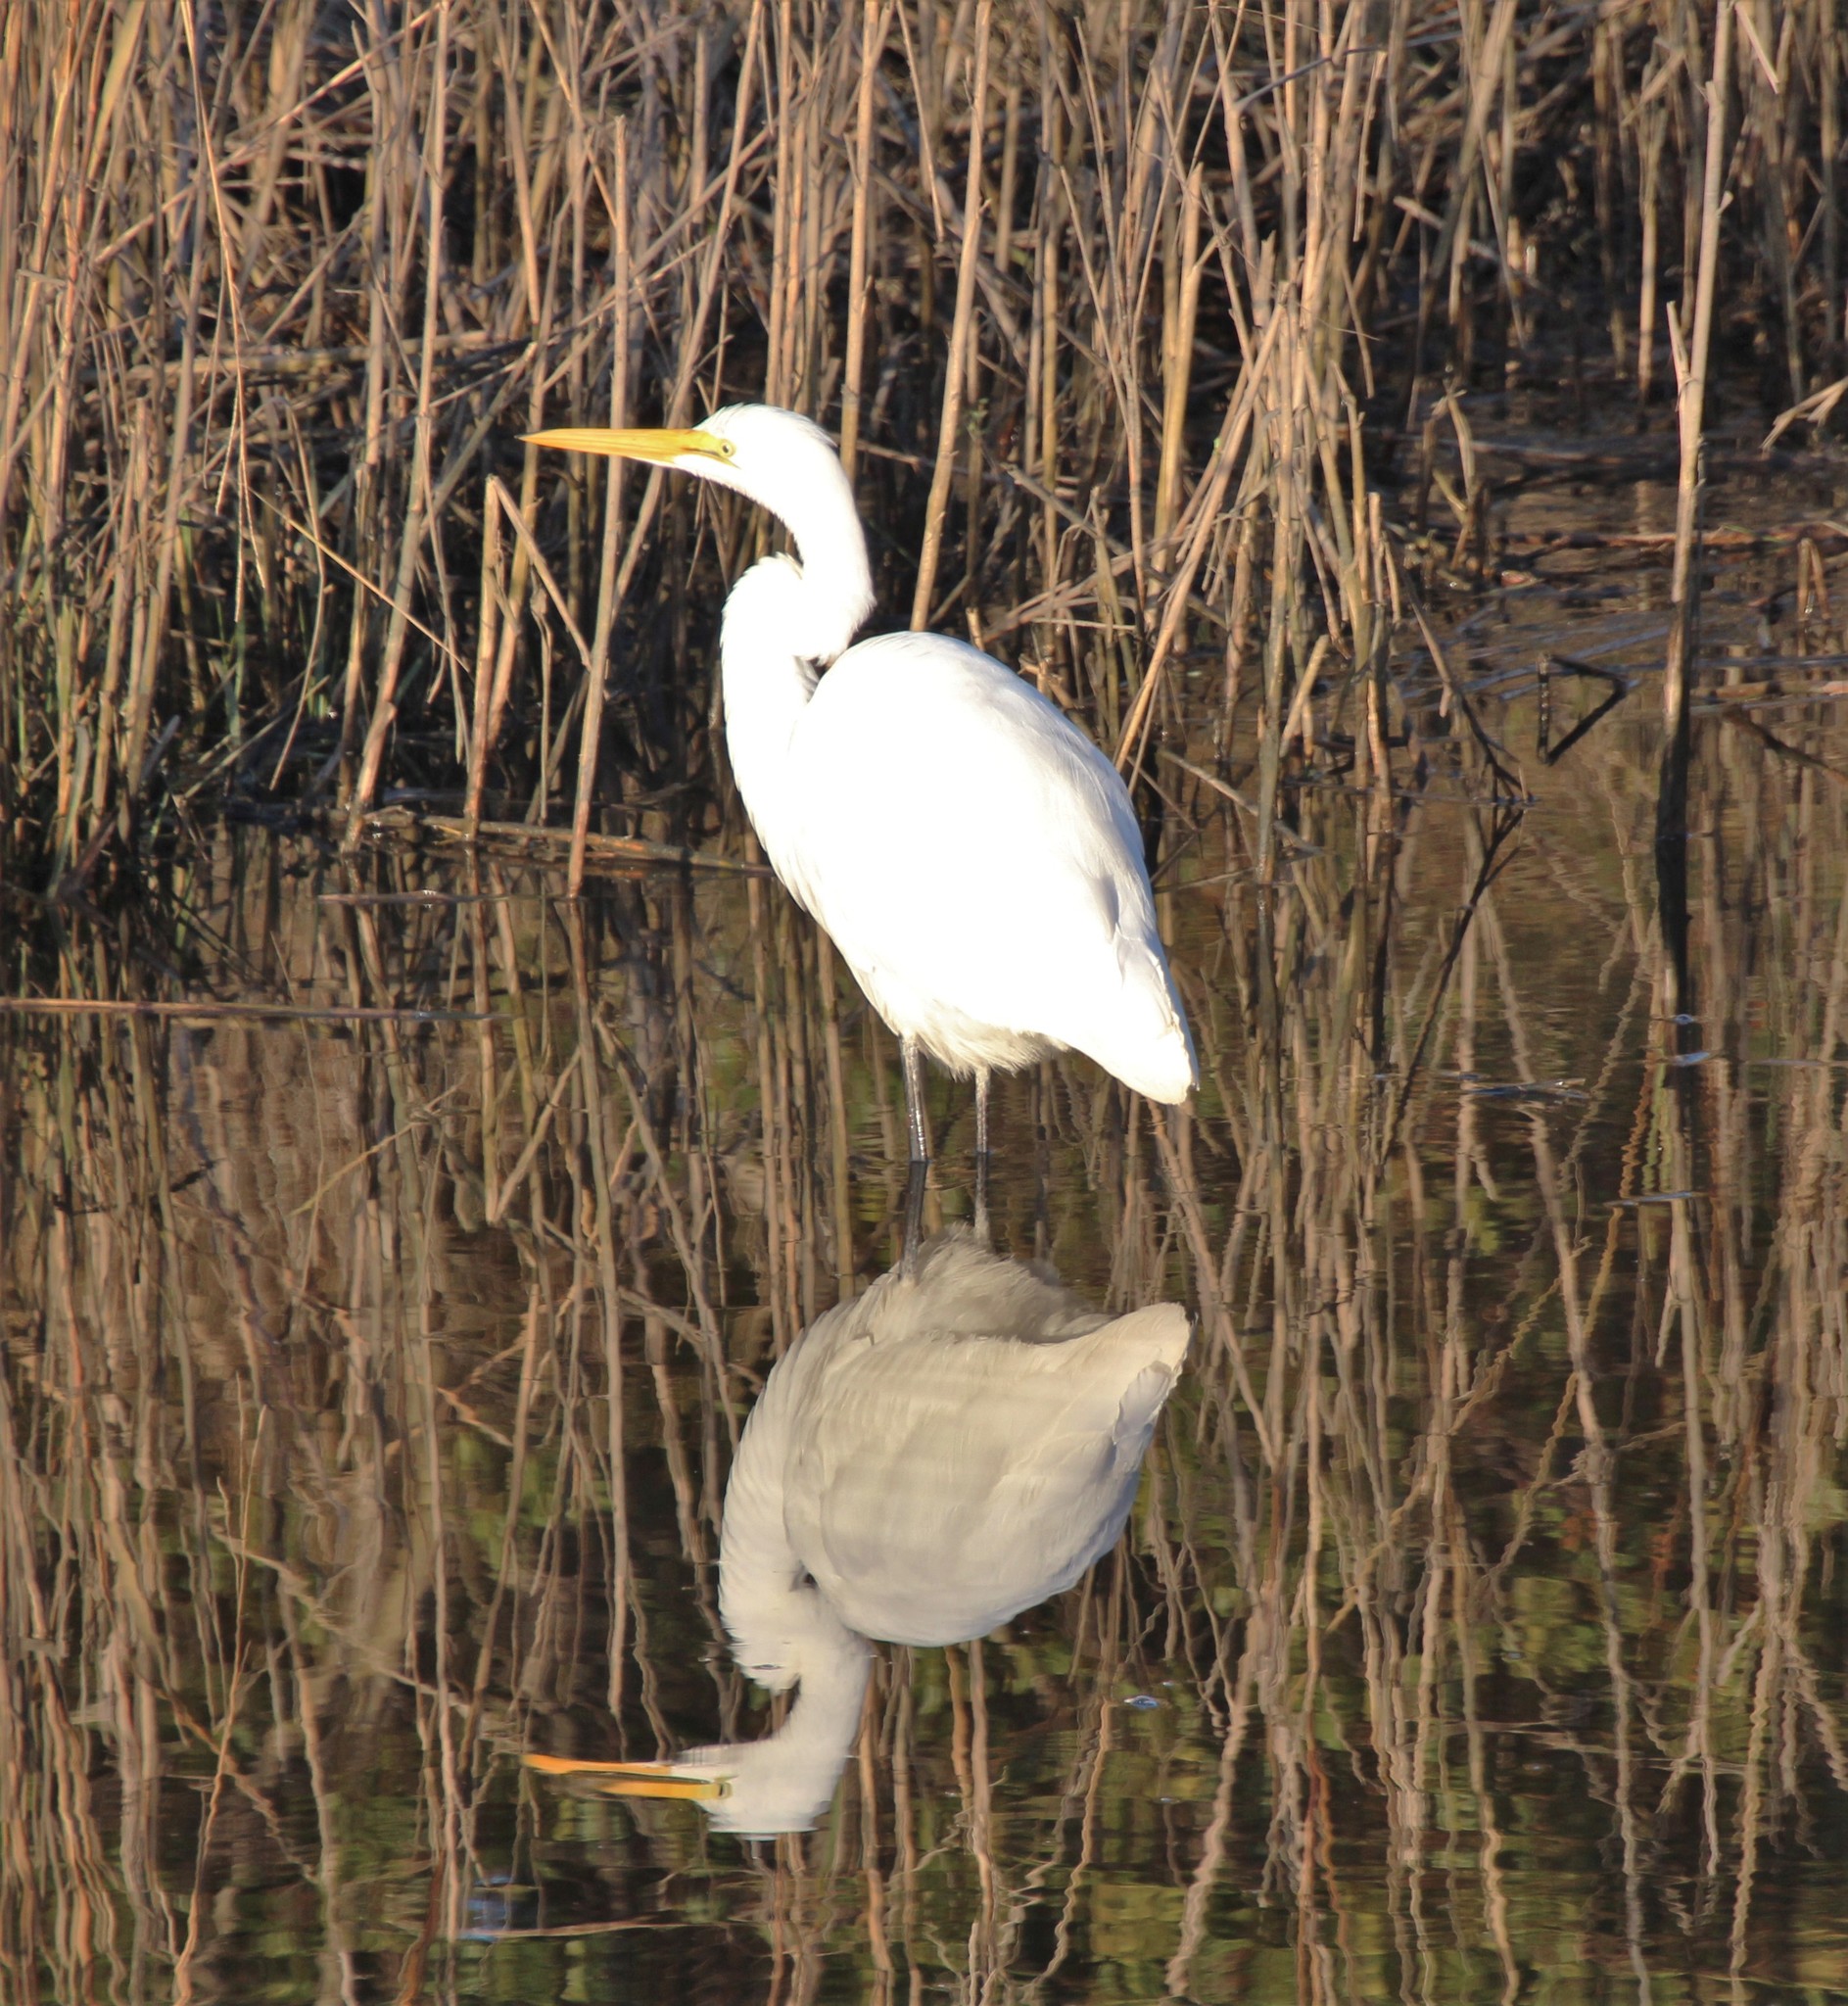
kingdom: Animalia
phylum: Chordata
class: Aves
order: Pelecaniformes
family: Ardeidae
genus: Ardea
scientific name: Ardea alba
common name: Great egret
